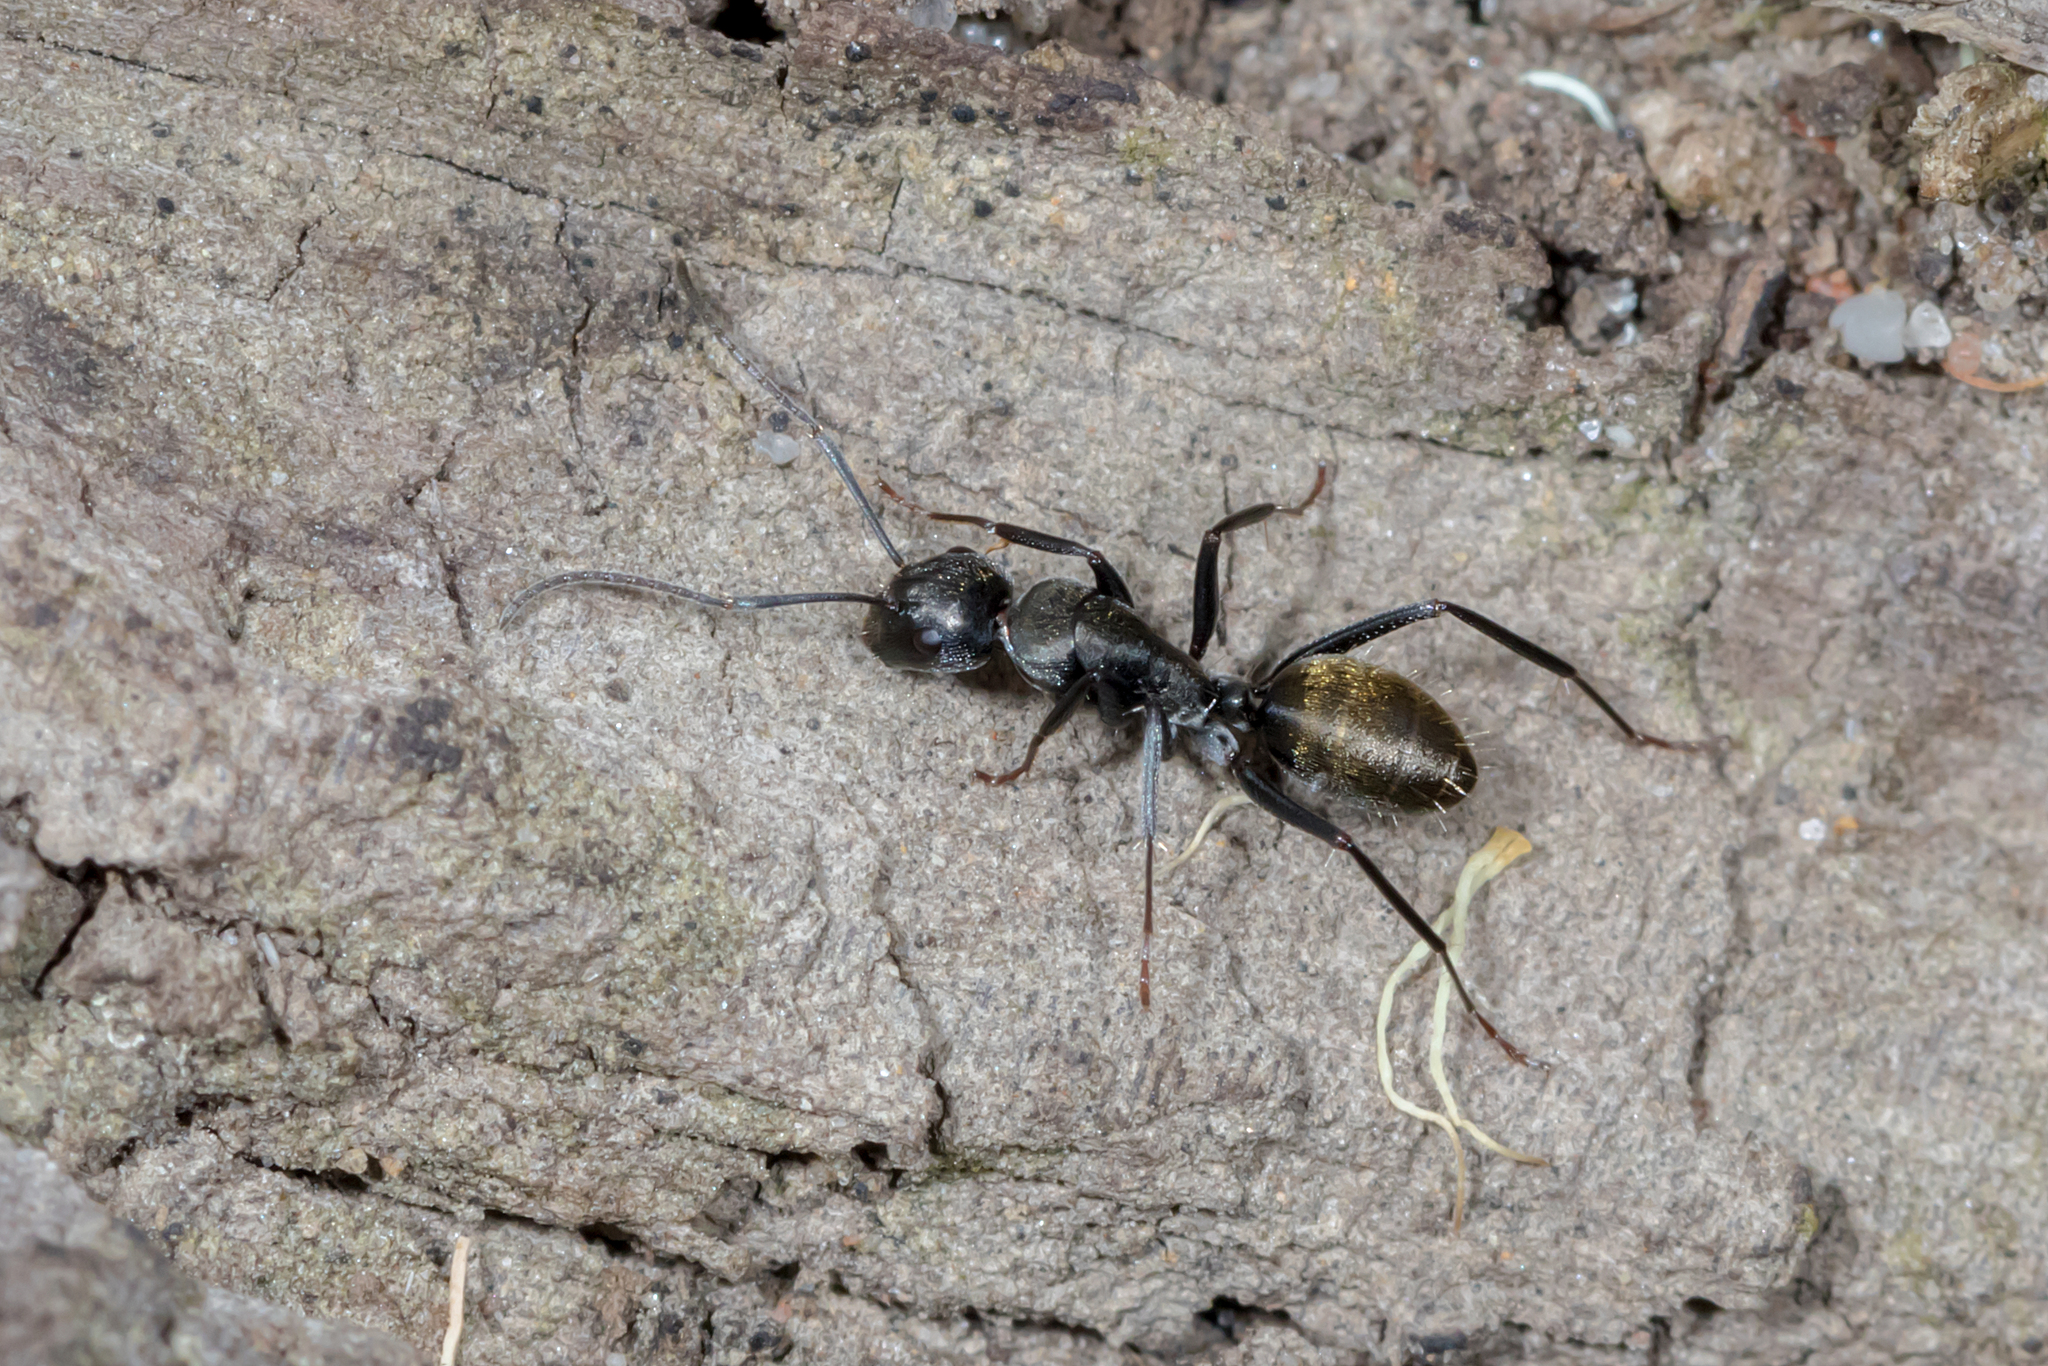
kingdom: Animalia
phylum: Arthropoda
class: Insecta
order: Hymenoptera
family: Formicidae
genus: Camponotus
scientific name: Camponotus aeneopilosus
